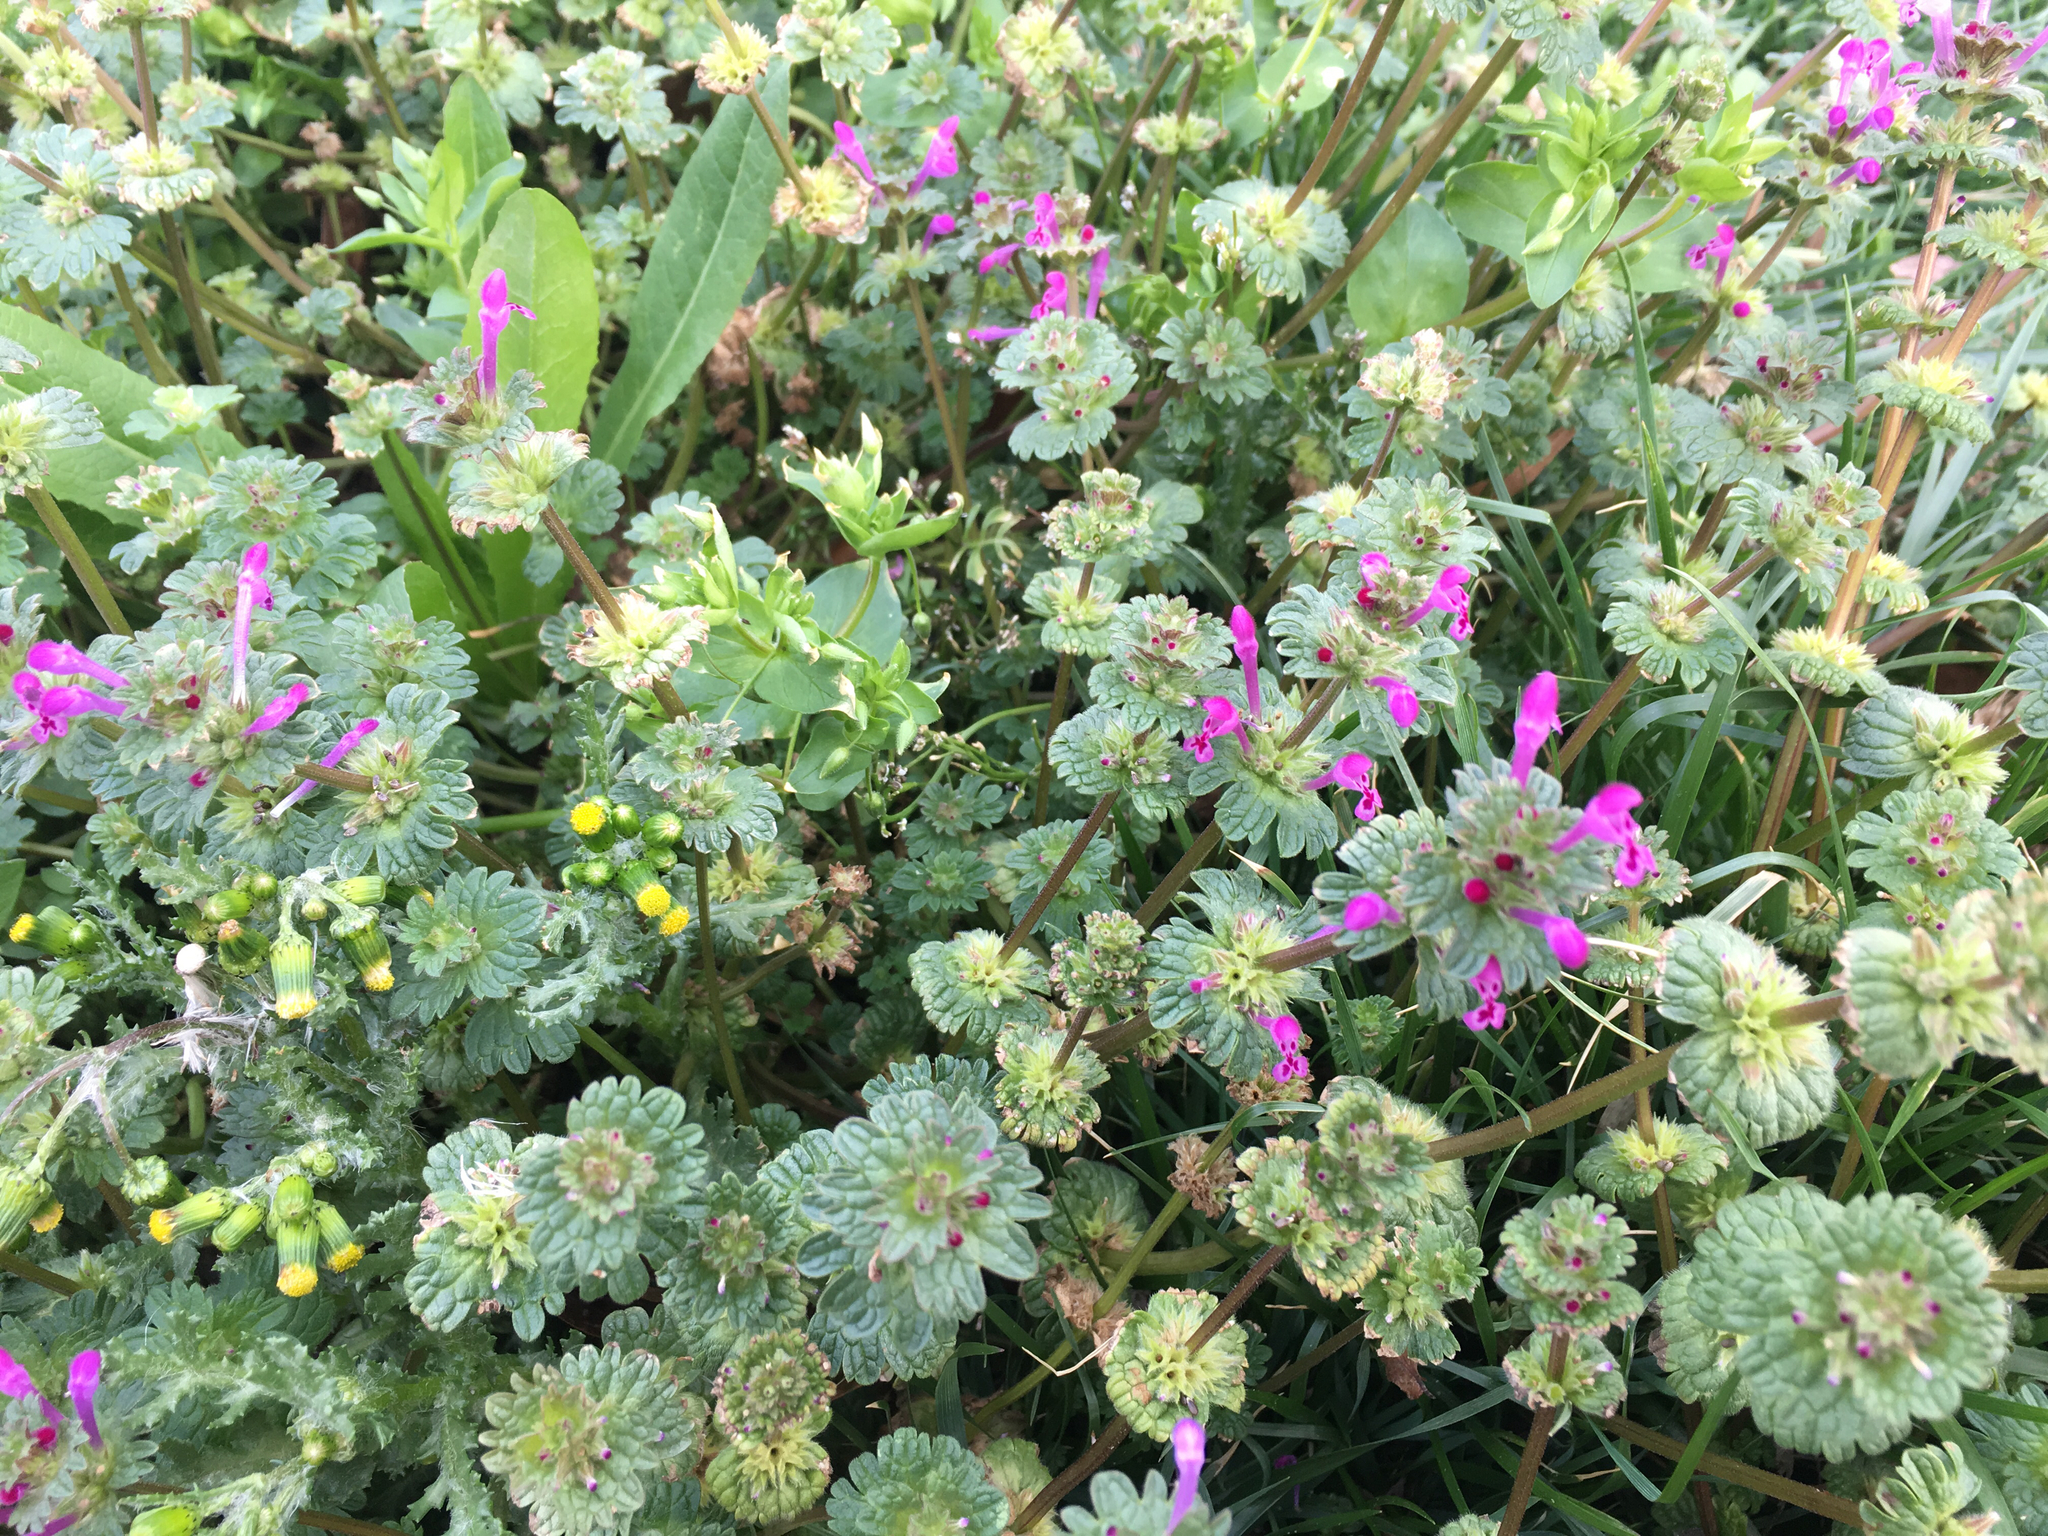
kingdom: Plantae
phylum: Tracheophyta
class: Magnoliopsida
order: Lamiales
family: Lamiaceae
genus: Lamium
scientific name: Lamium amplexicaule
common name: Henbit dead-nettle
